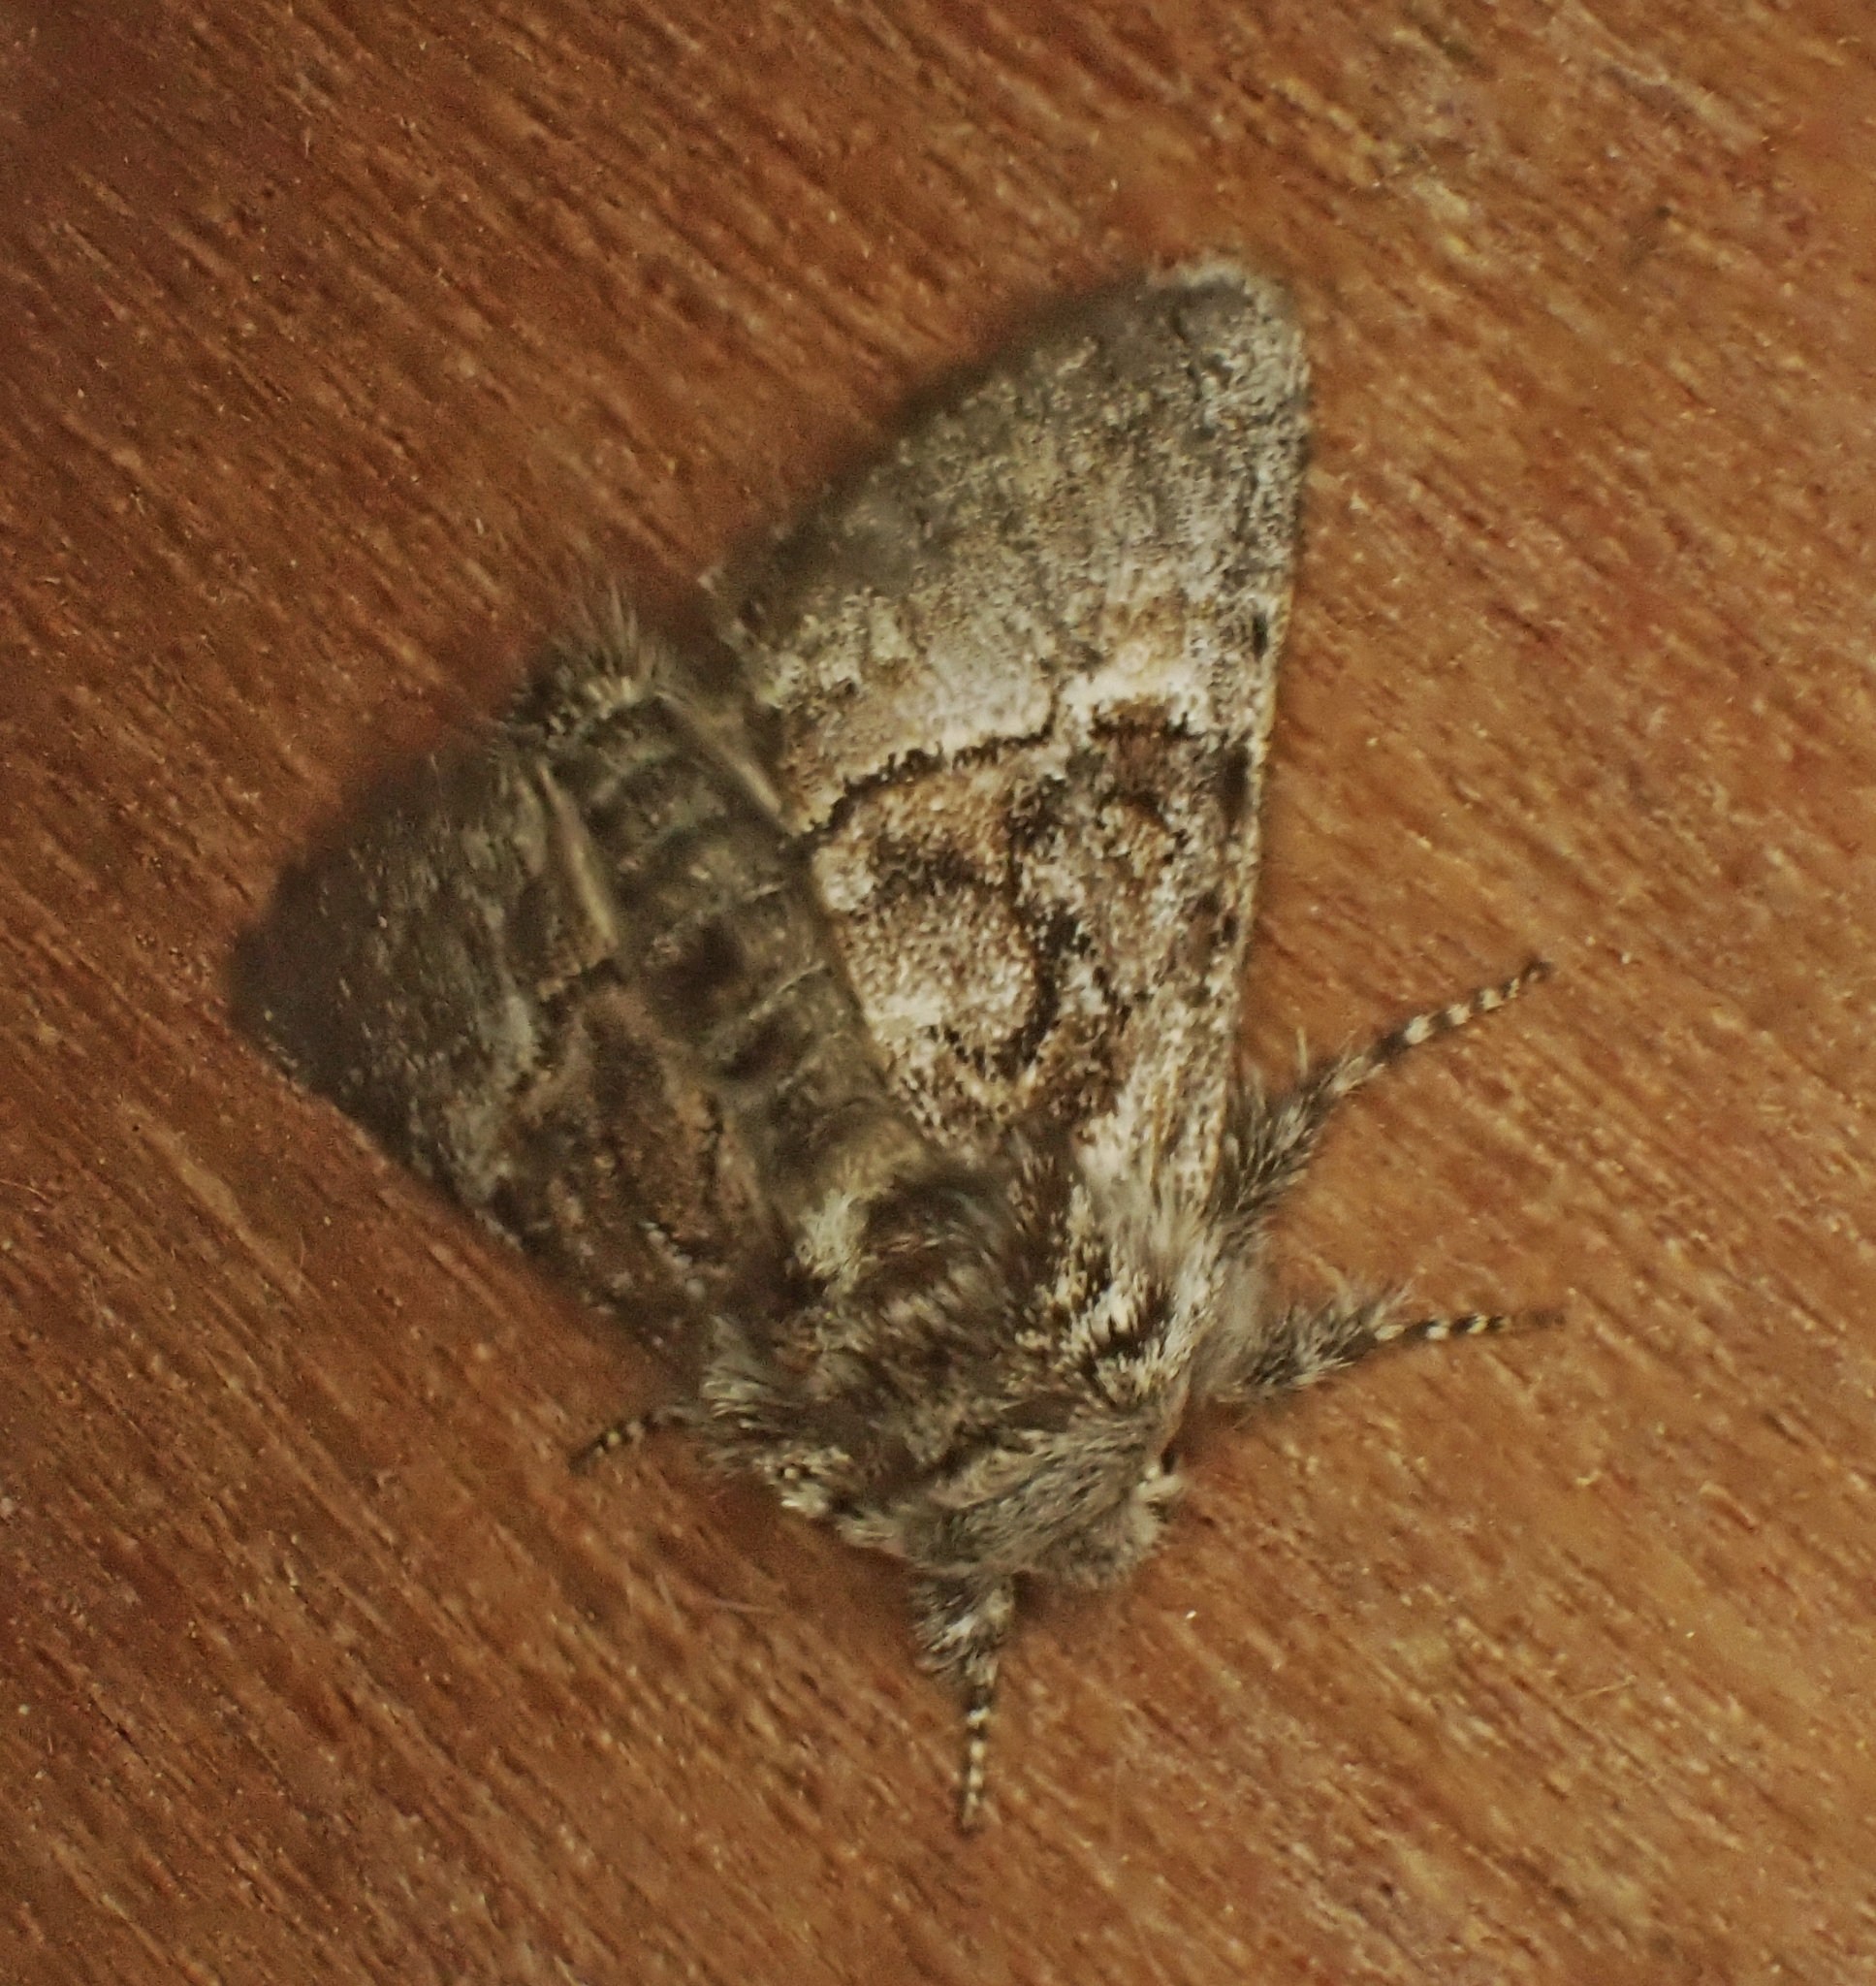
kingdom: Animalia
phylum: Arthropoda
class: Insecta
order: Lepidoptera
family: Noctuidae
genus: Colocasia
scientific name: Colocasia coryli
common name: Nut-tree tussock
